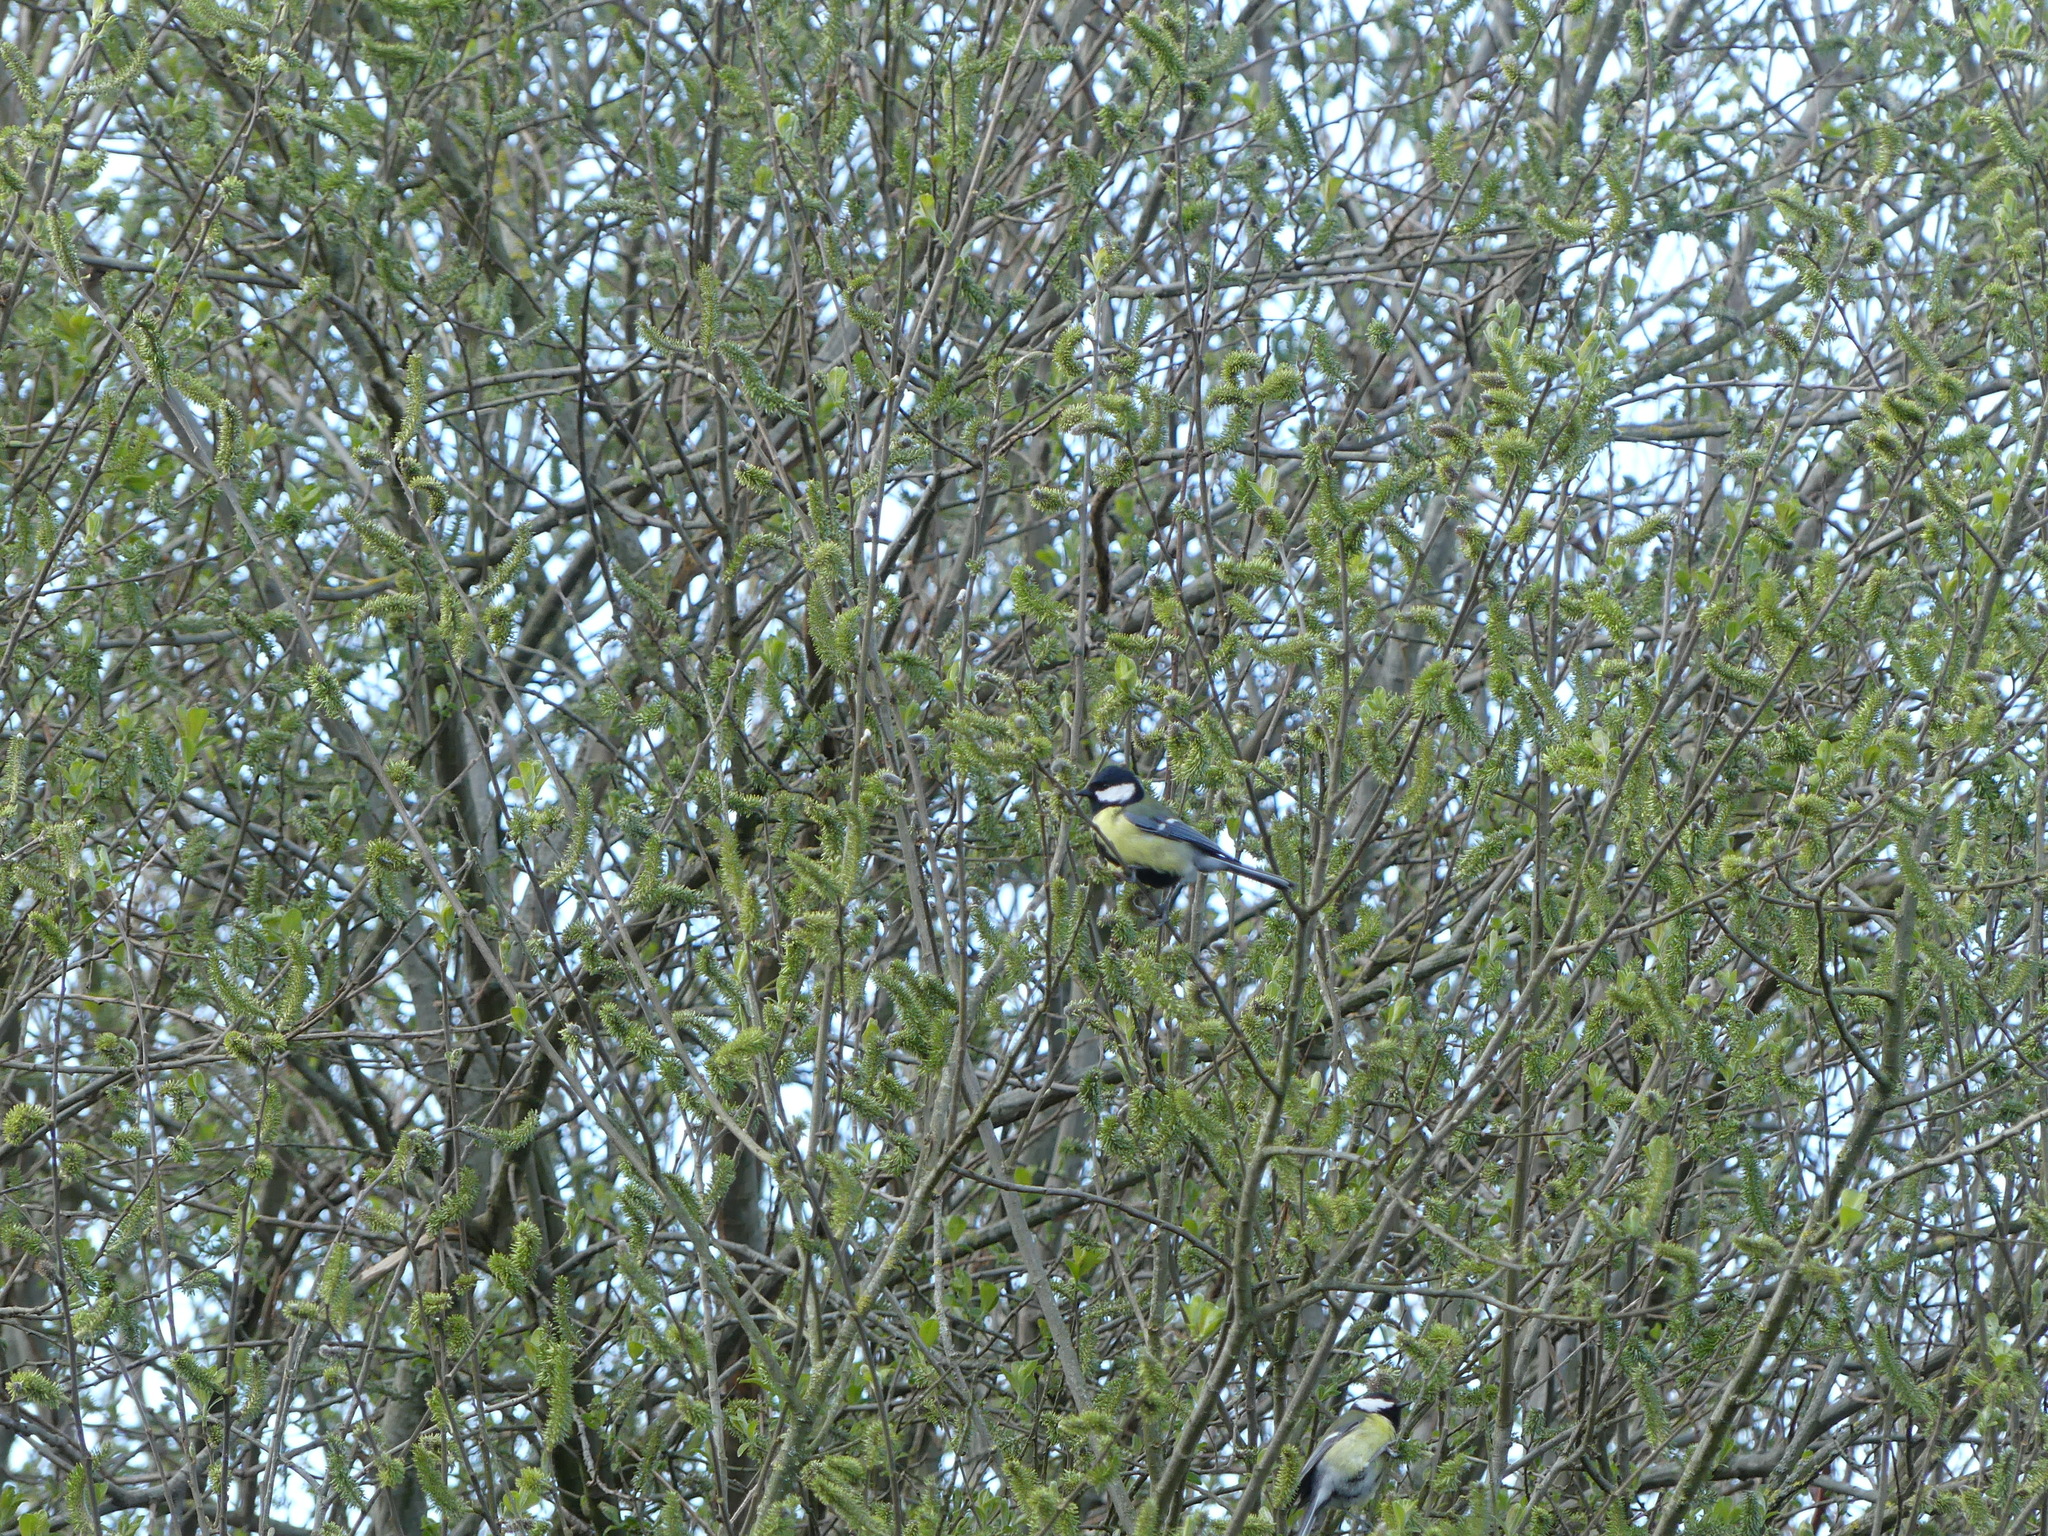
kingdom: Animalia
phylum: Chordata
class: Aves
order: Passeriformes
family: Paridae
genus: Parus
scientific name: Parus major
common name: Great tit
